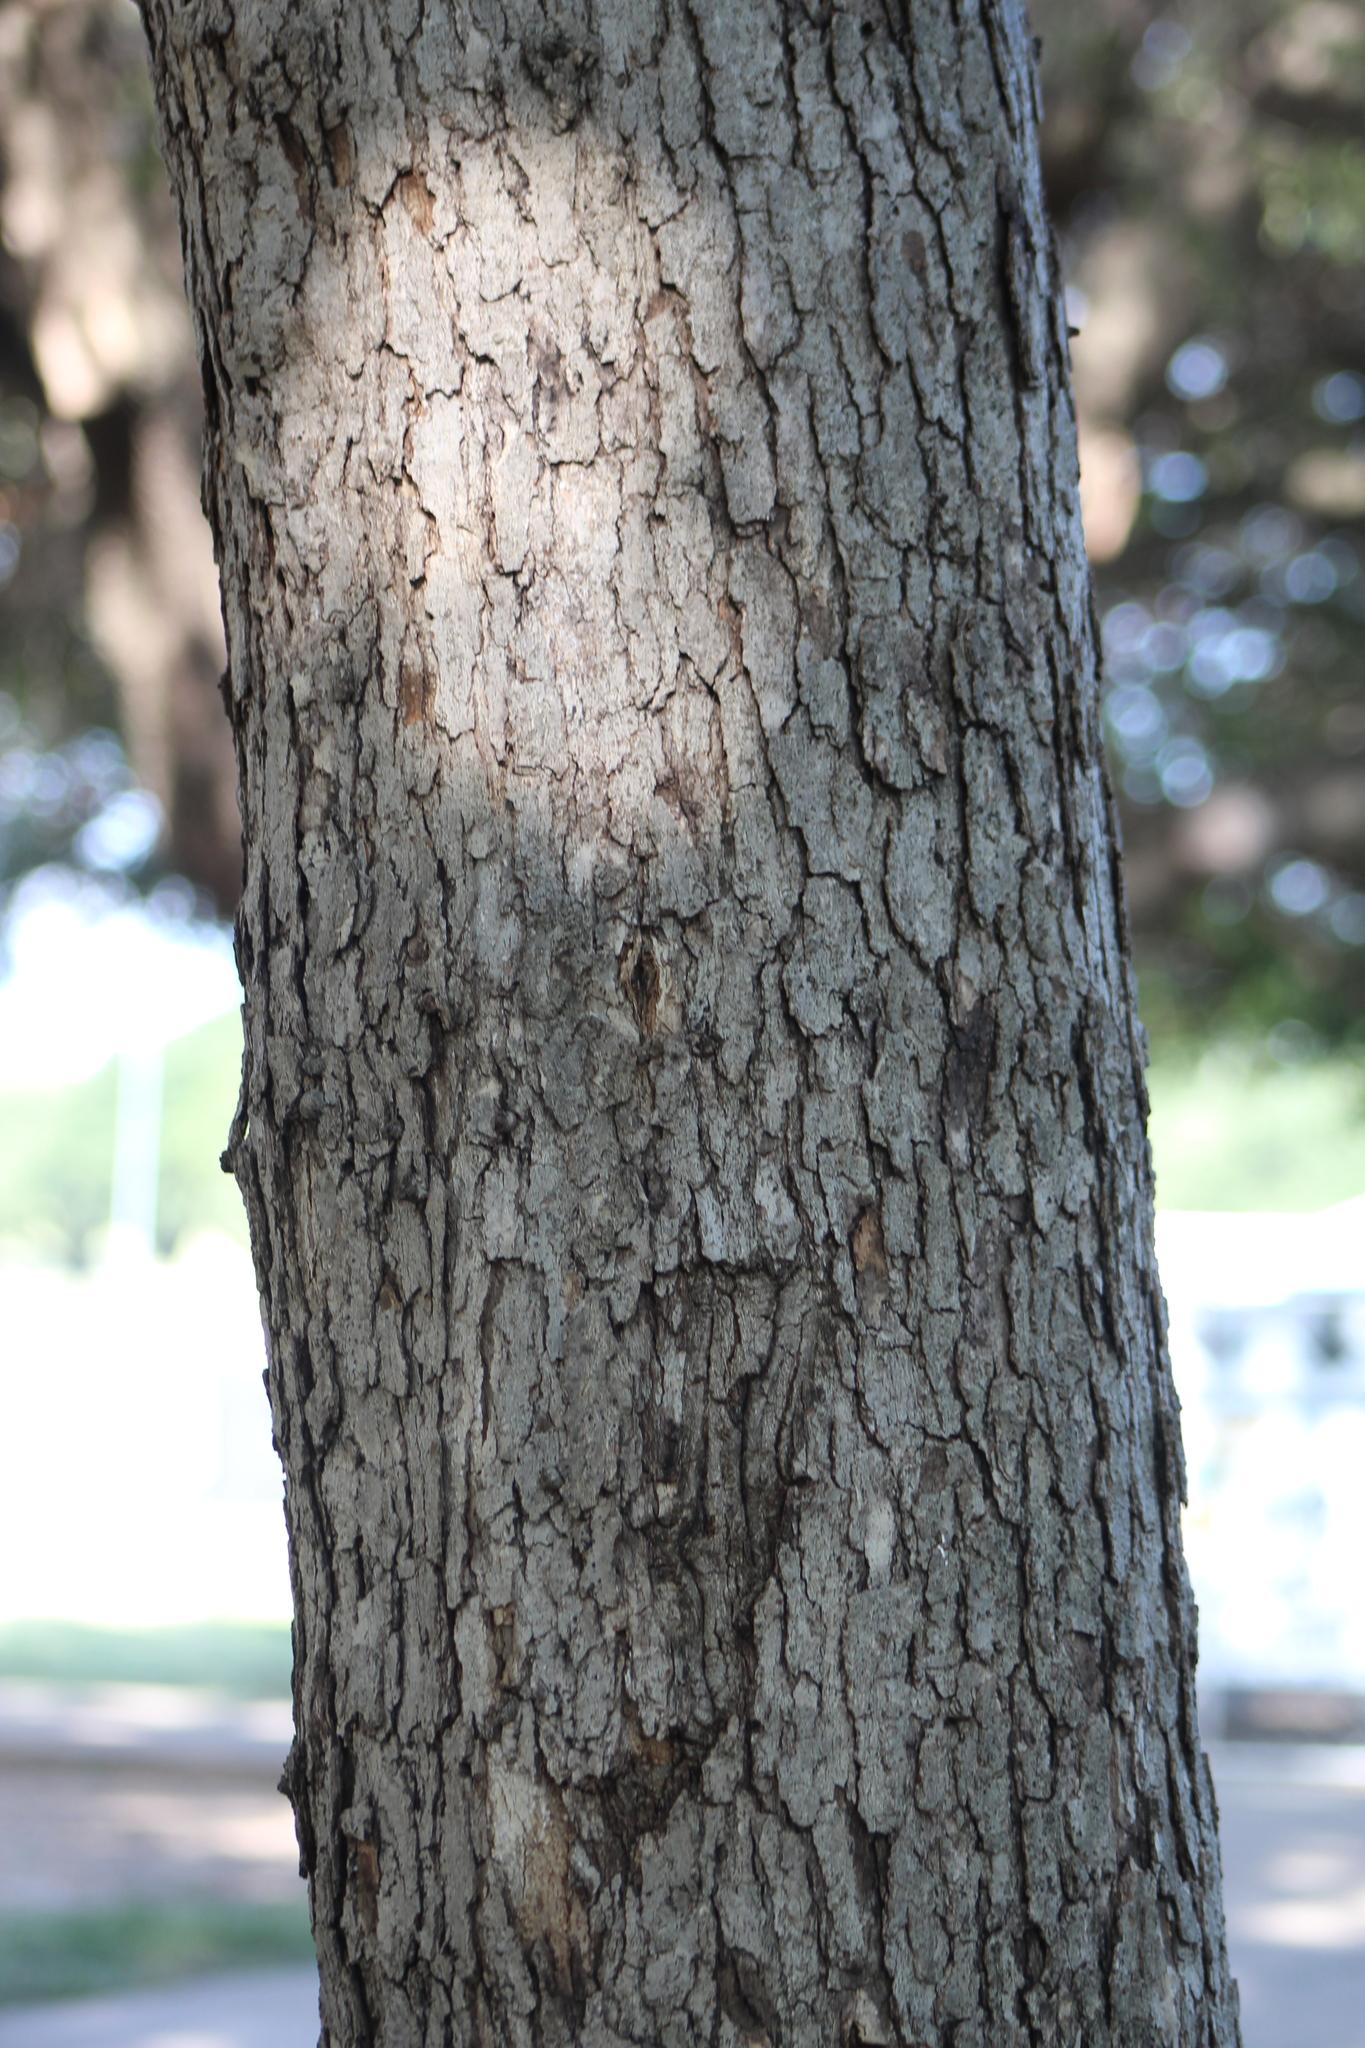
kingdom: Plantae
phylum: Tracheophyta
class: Magnoliopsida
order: Fagales
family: Fagaceae
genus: Quercus
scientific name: Quercus muehlenbergii
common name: Chinkapin oak
